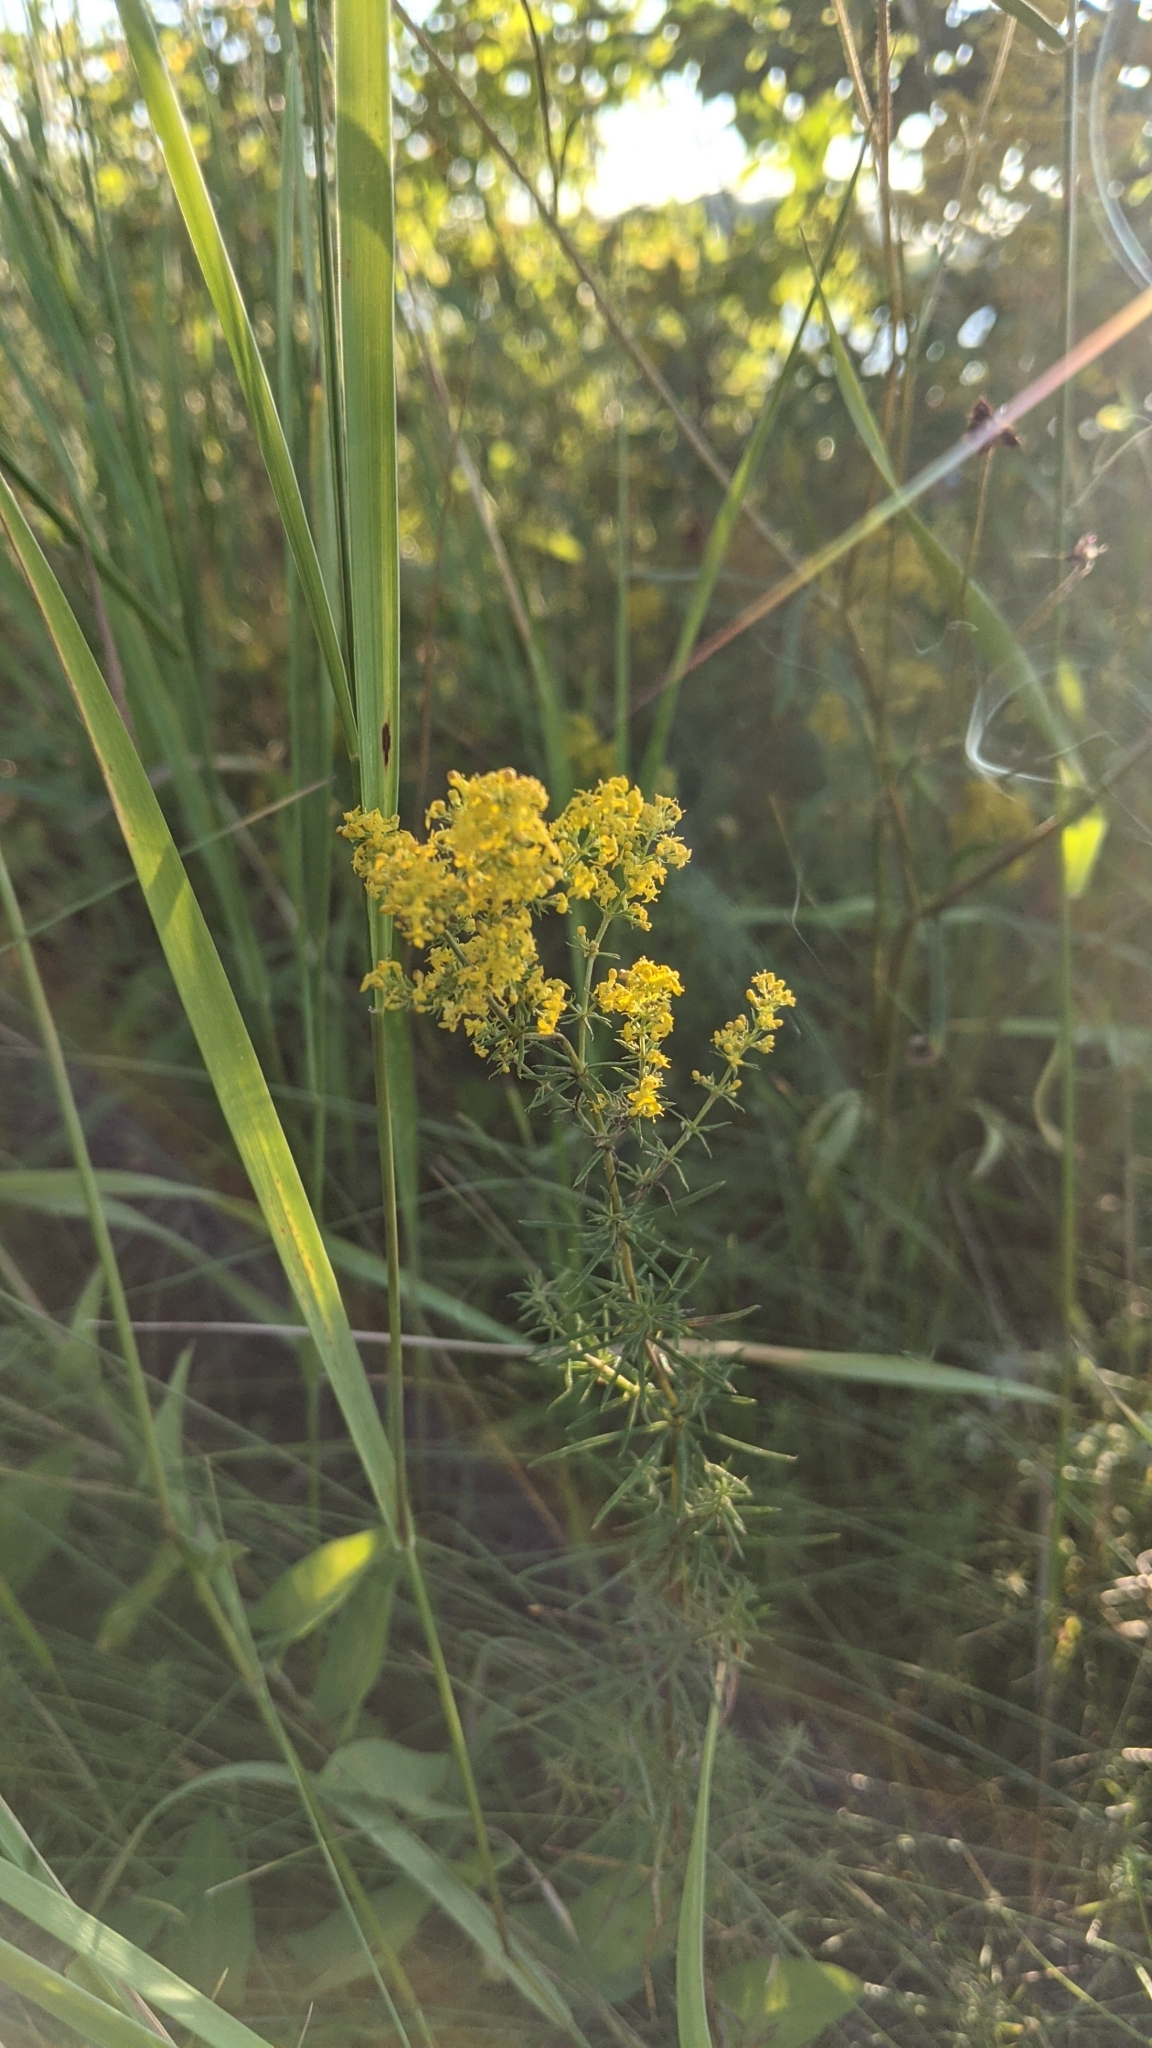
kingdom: Plantae
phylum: Tracheophyta
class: Magnoliopsida
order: Gentianales
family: Rubiaceae
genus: Galium
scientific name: Galium verum
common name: Lady's bedstraw
